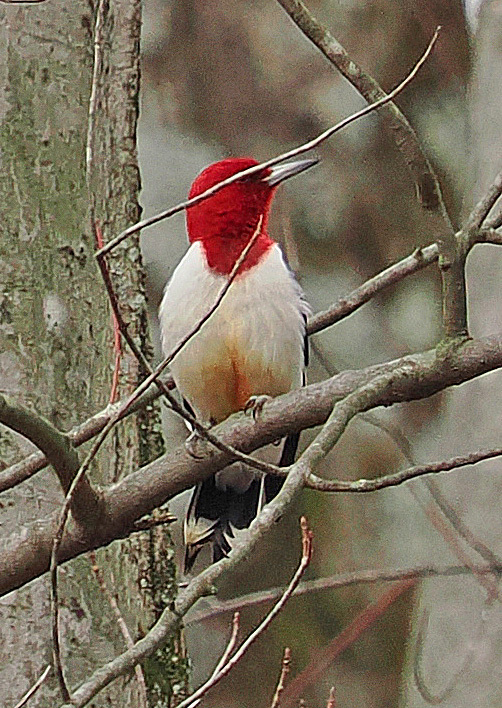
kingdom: Animalia
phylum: Chordata
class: Aves
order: Piciformes
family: Picidae
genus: Melanerpes
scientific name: Melanerpes erythrocephalus
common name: Red-headed woodpecker
